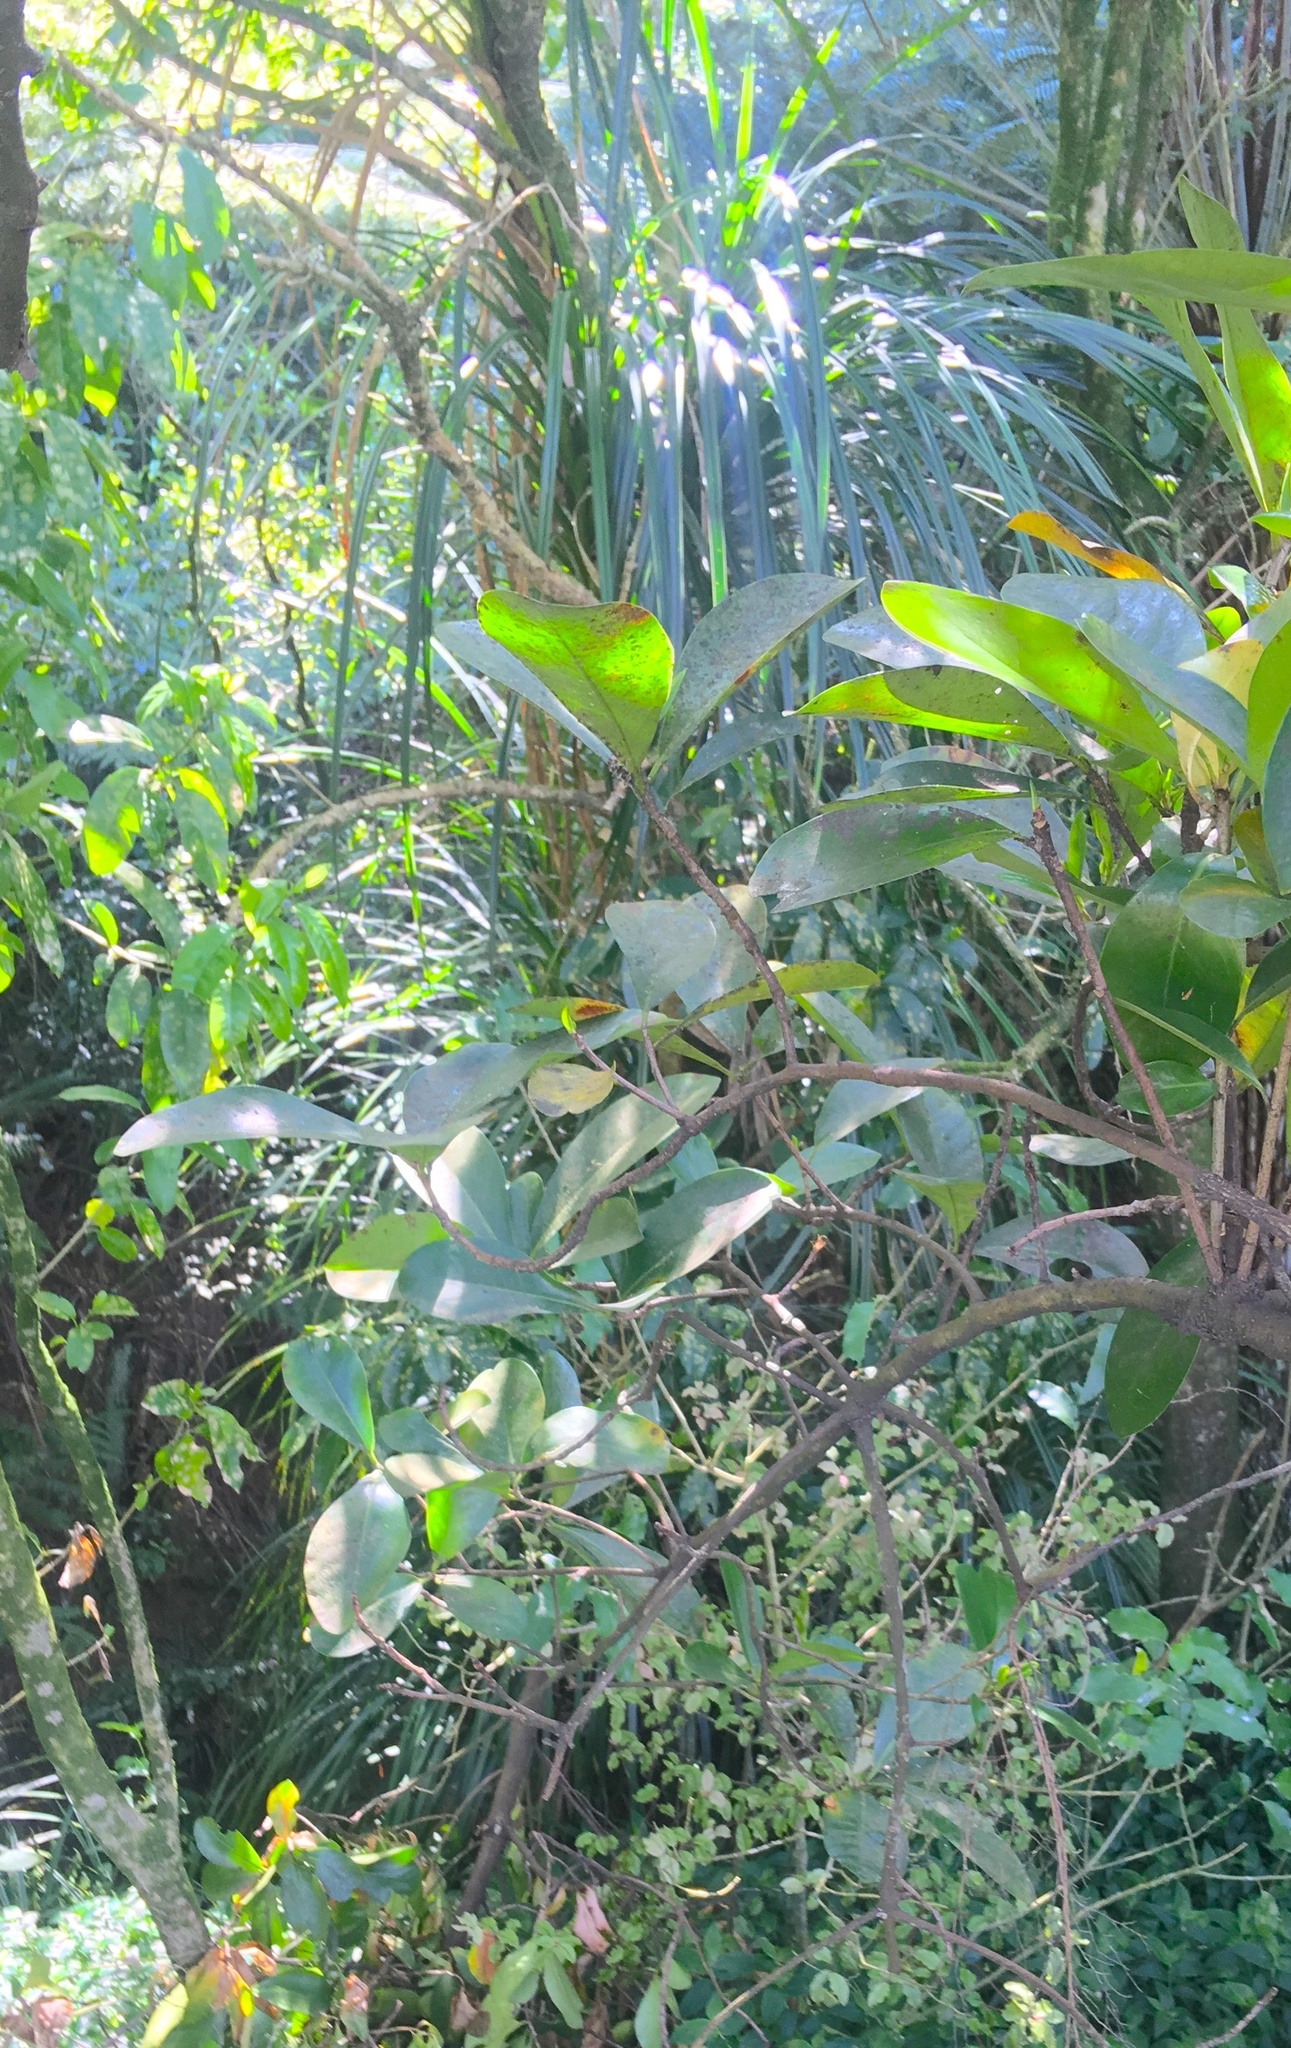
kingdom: Plantae
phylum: Tracheophyta
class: Liliopsida
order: Pandanales
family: Pandanaceae
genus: Freycinetia
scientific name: Freycinetia banksii
